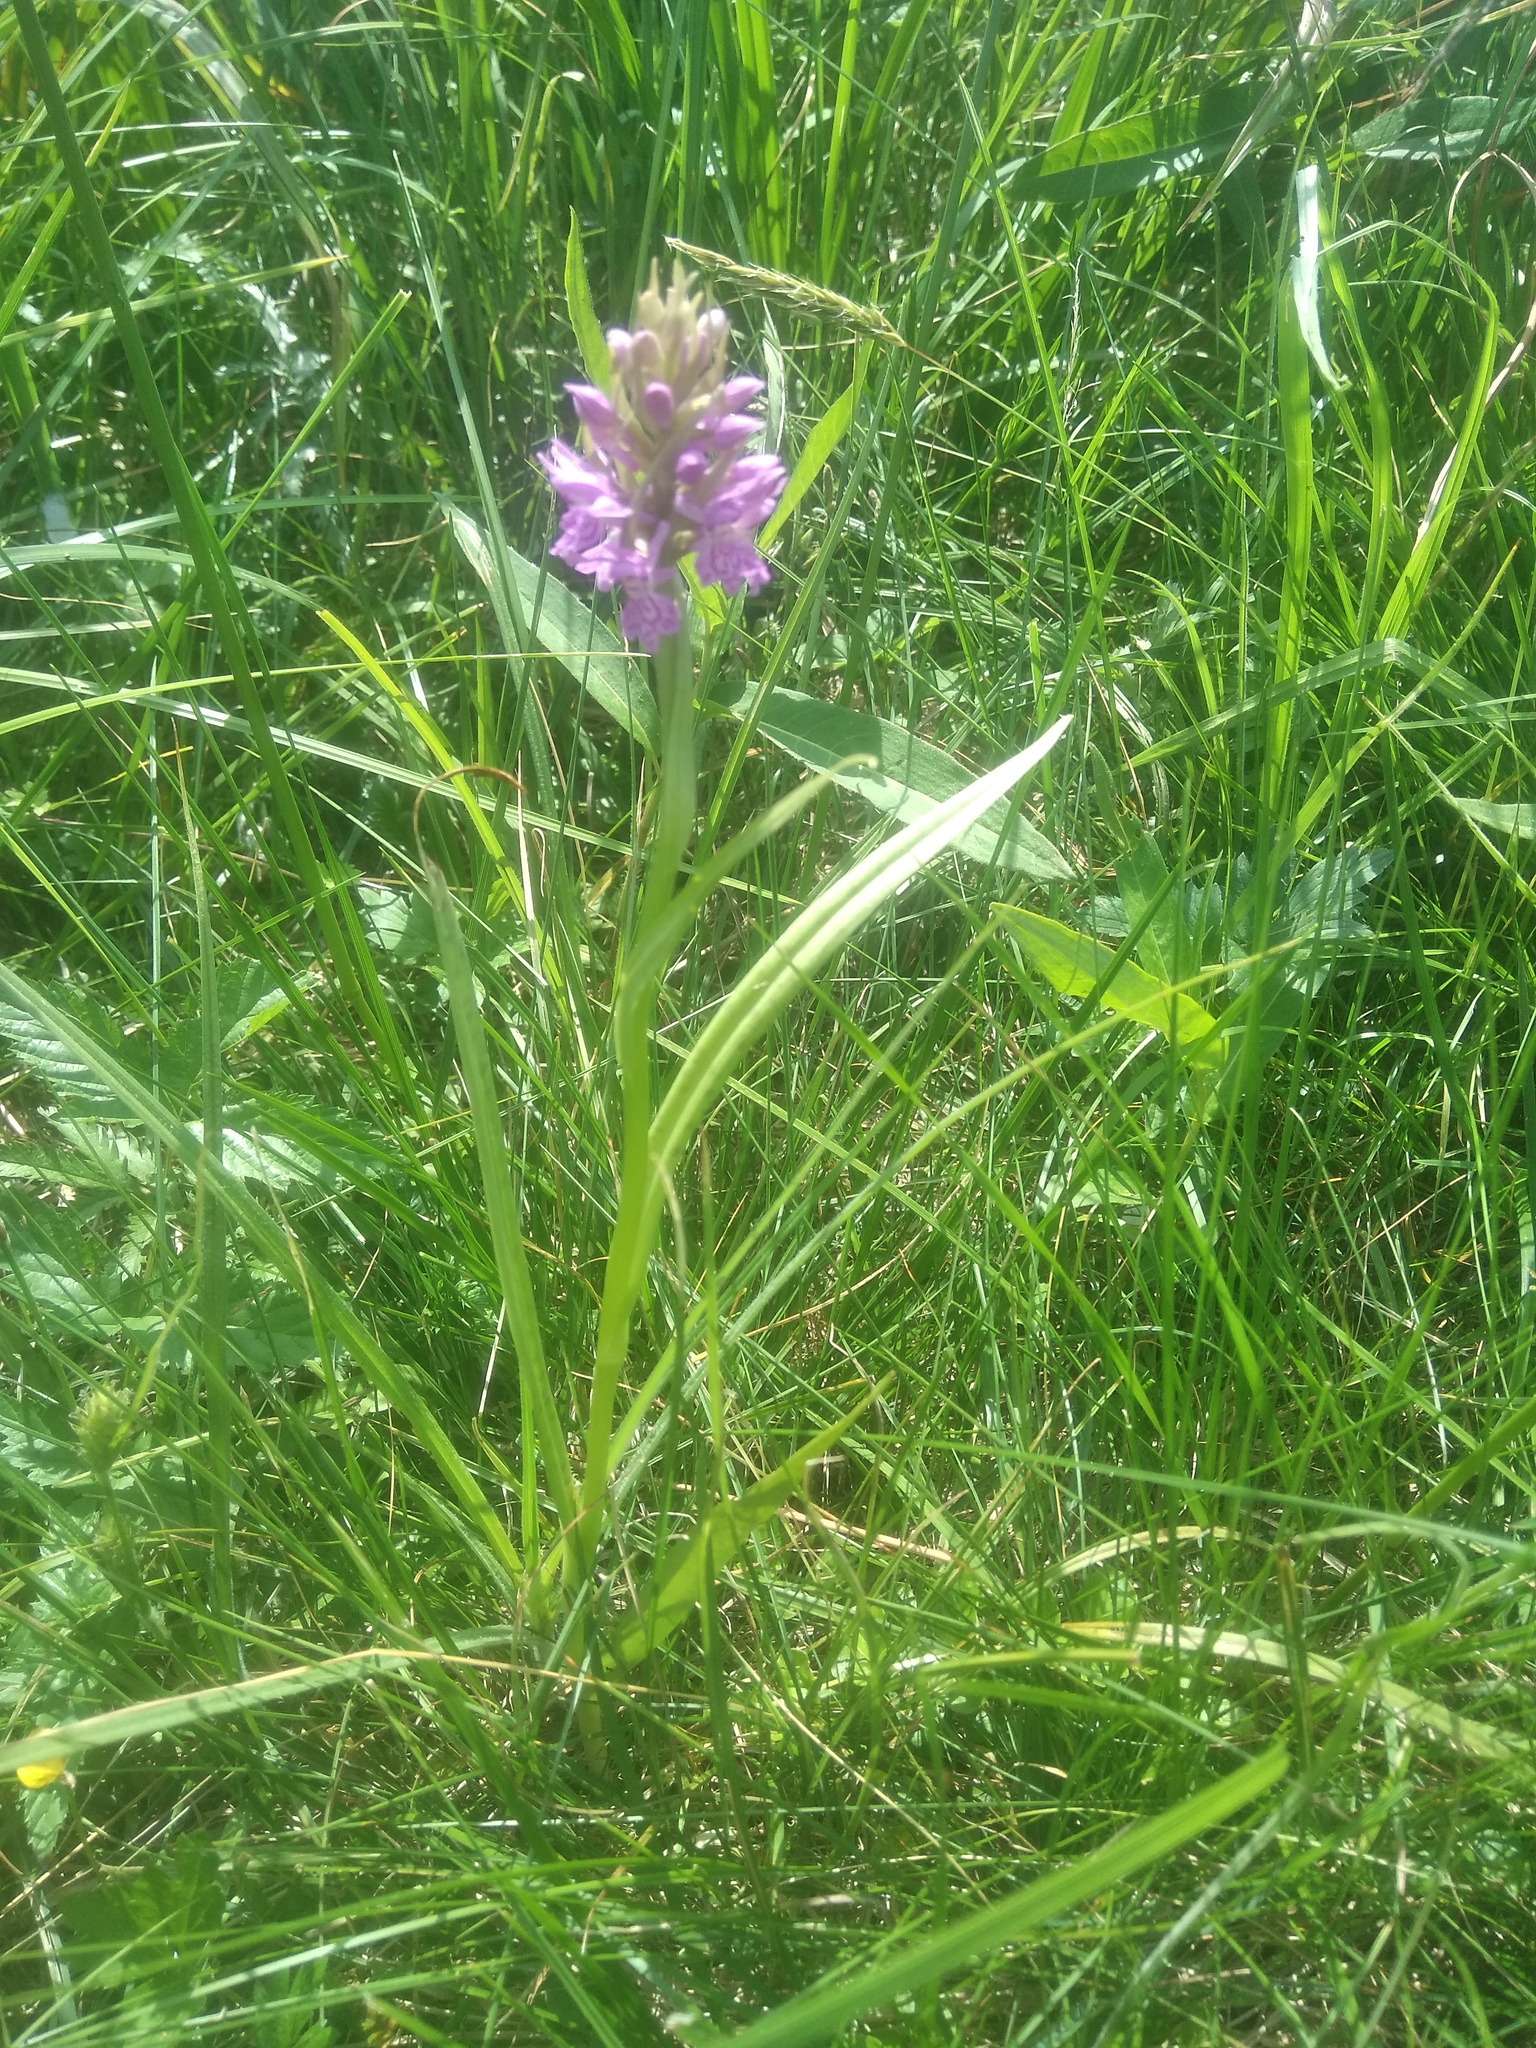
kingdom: Plantae
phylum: Tracheophyta
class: Liliopsida
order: Asparagales
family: Orchidaceae
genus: Dactylorhiza
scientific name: Dactylorhiza majalis
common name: Marsh orchid
